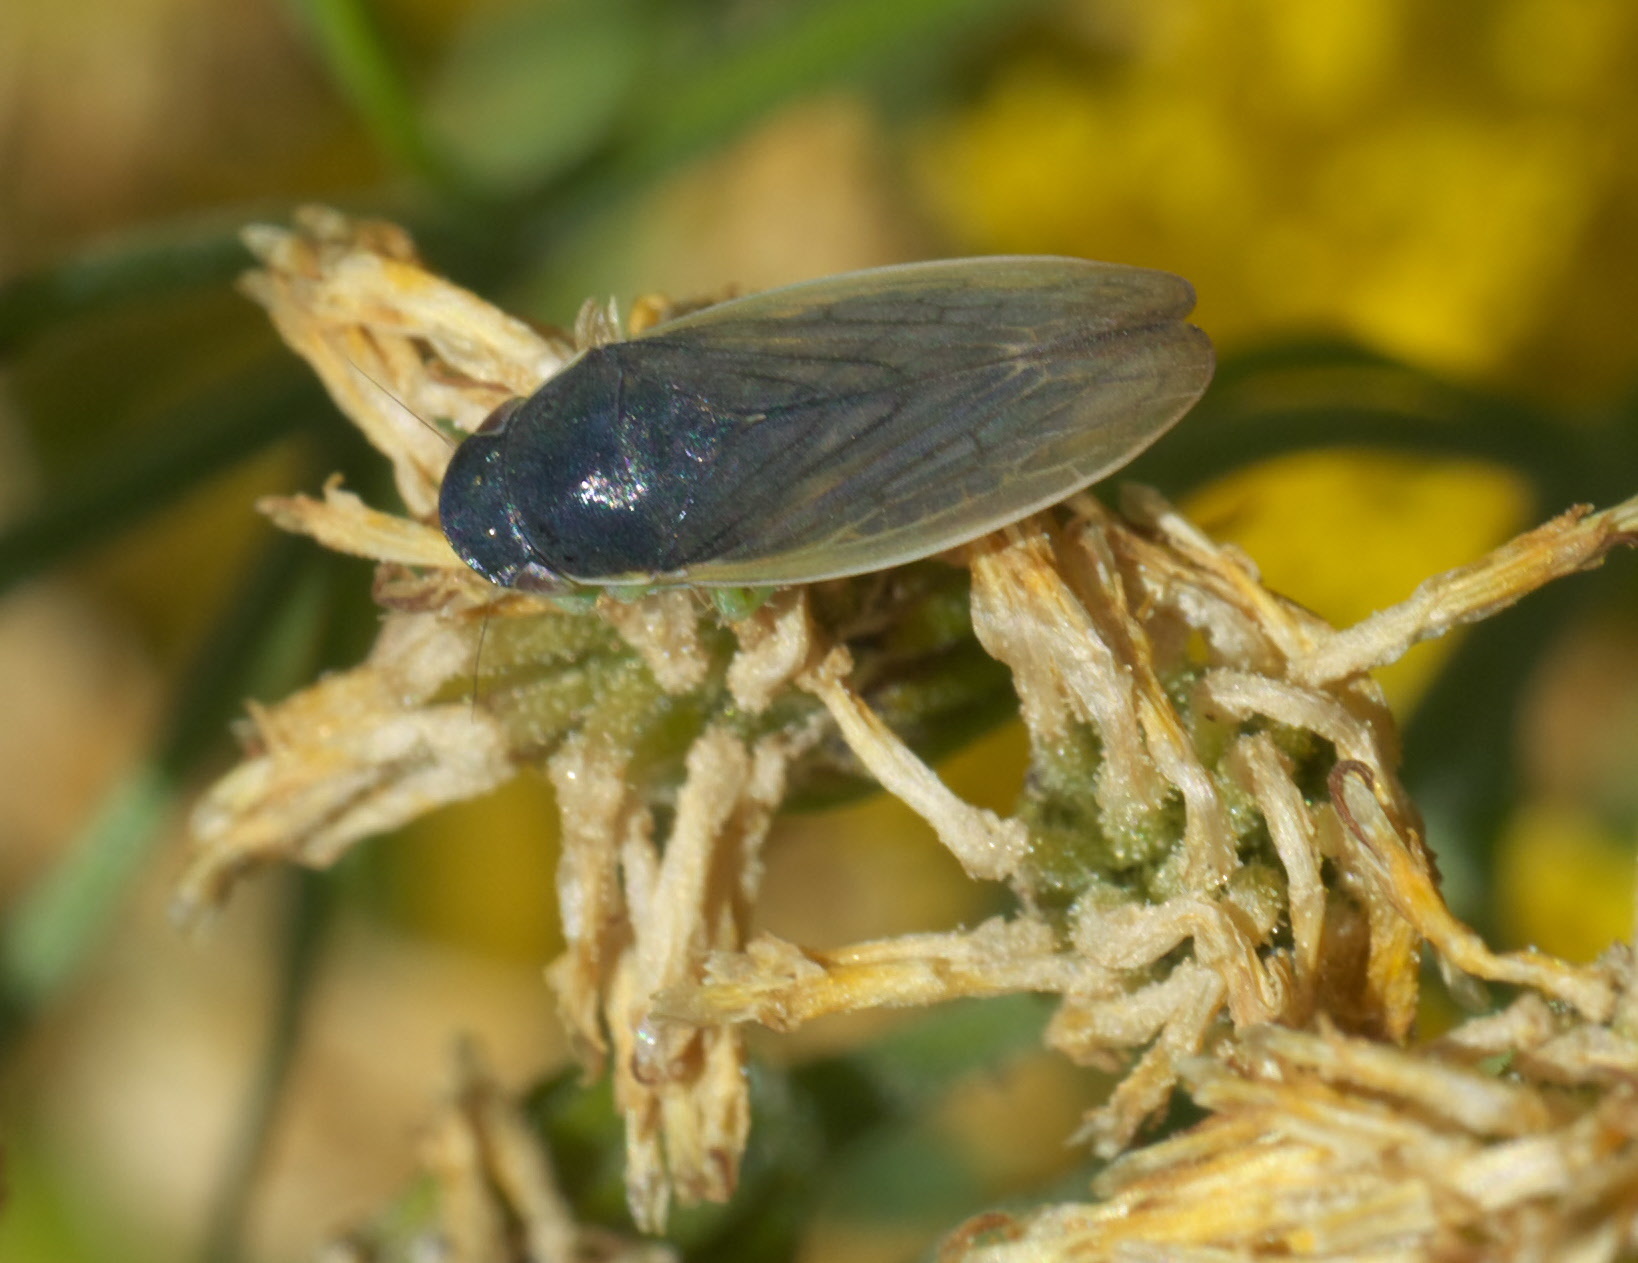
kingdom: Animalia
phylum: Arthropoda
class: Insecta
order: Hemiptera
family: Cicadellidae
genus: Gypona
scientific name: Gypona melanota
